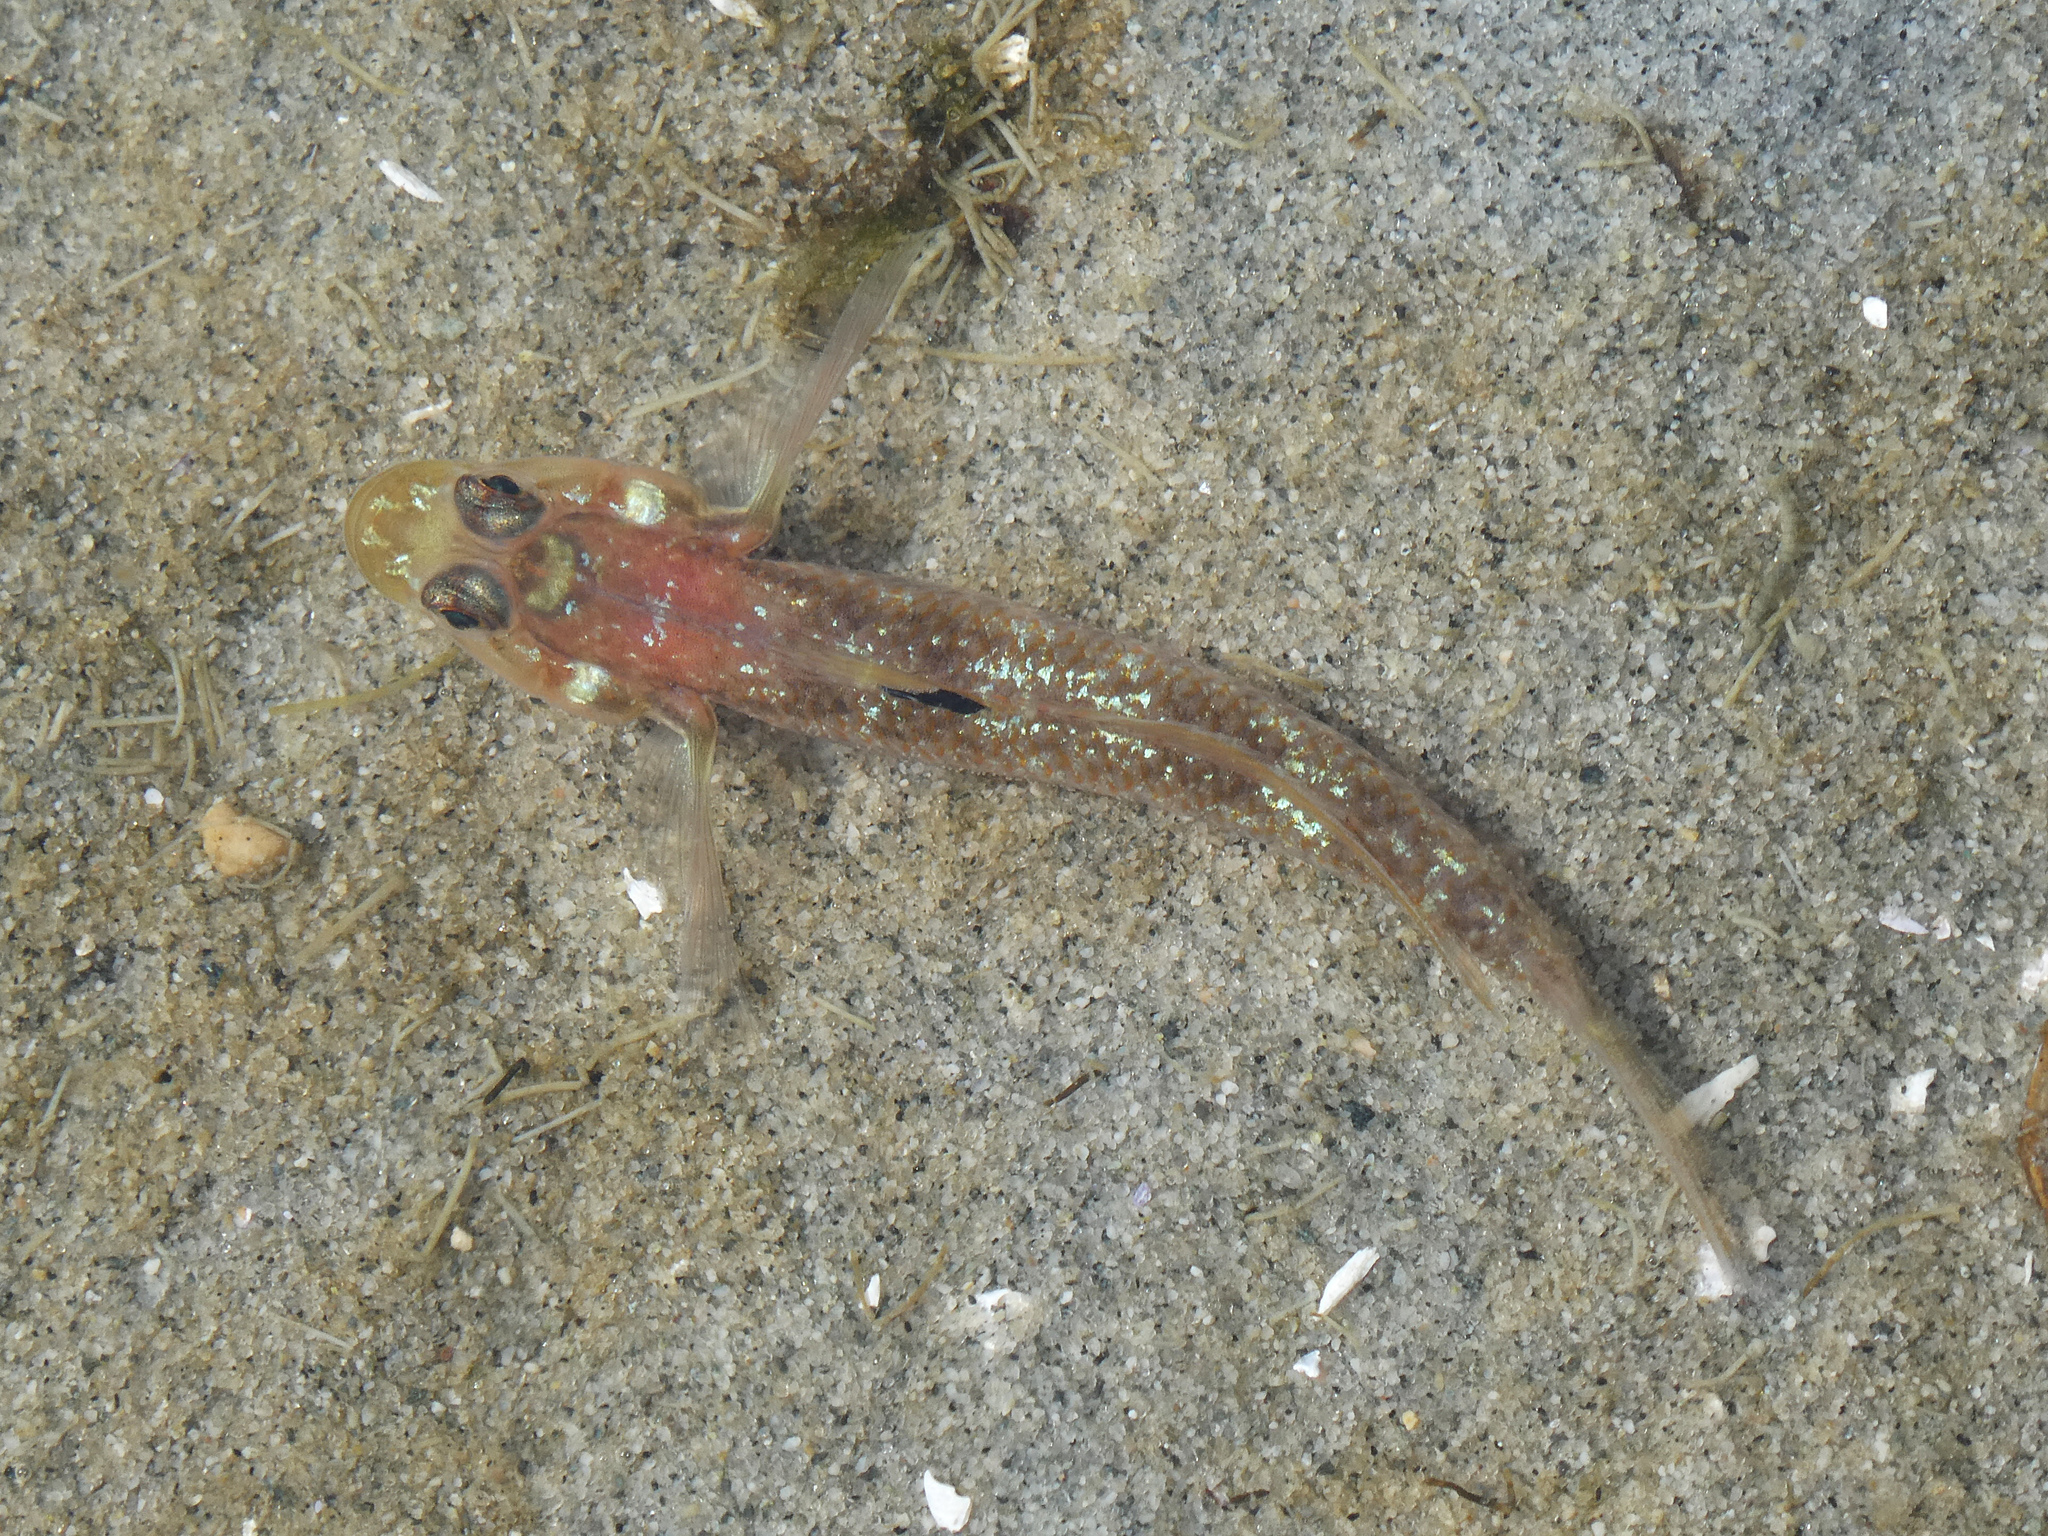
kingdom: Animalia
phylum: Chordata
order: Perciformes
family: Gobiidae
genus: Rhinogobiops
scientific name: Rhinogobiops nicholsii
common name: Blackeye goby
